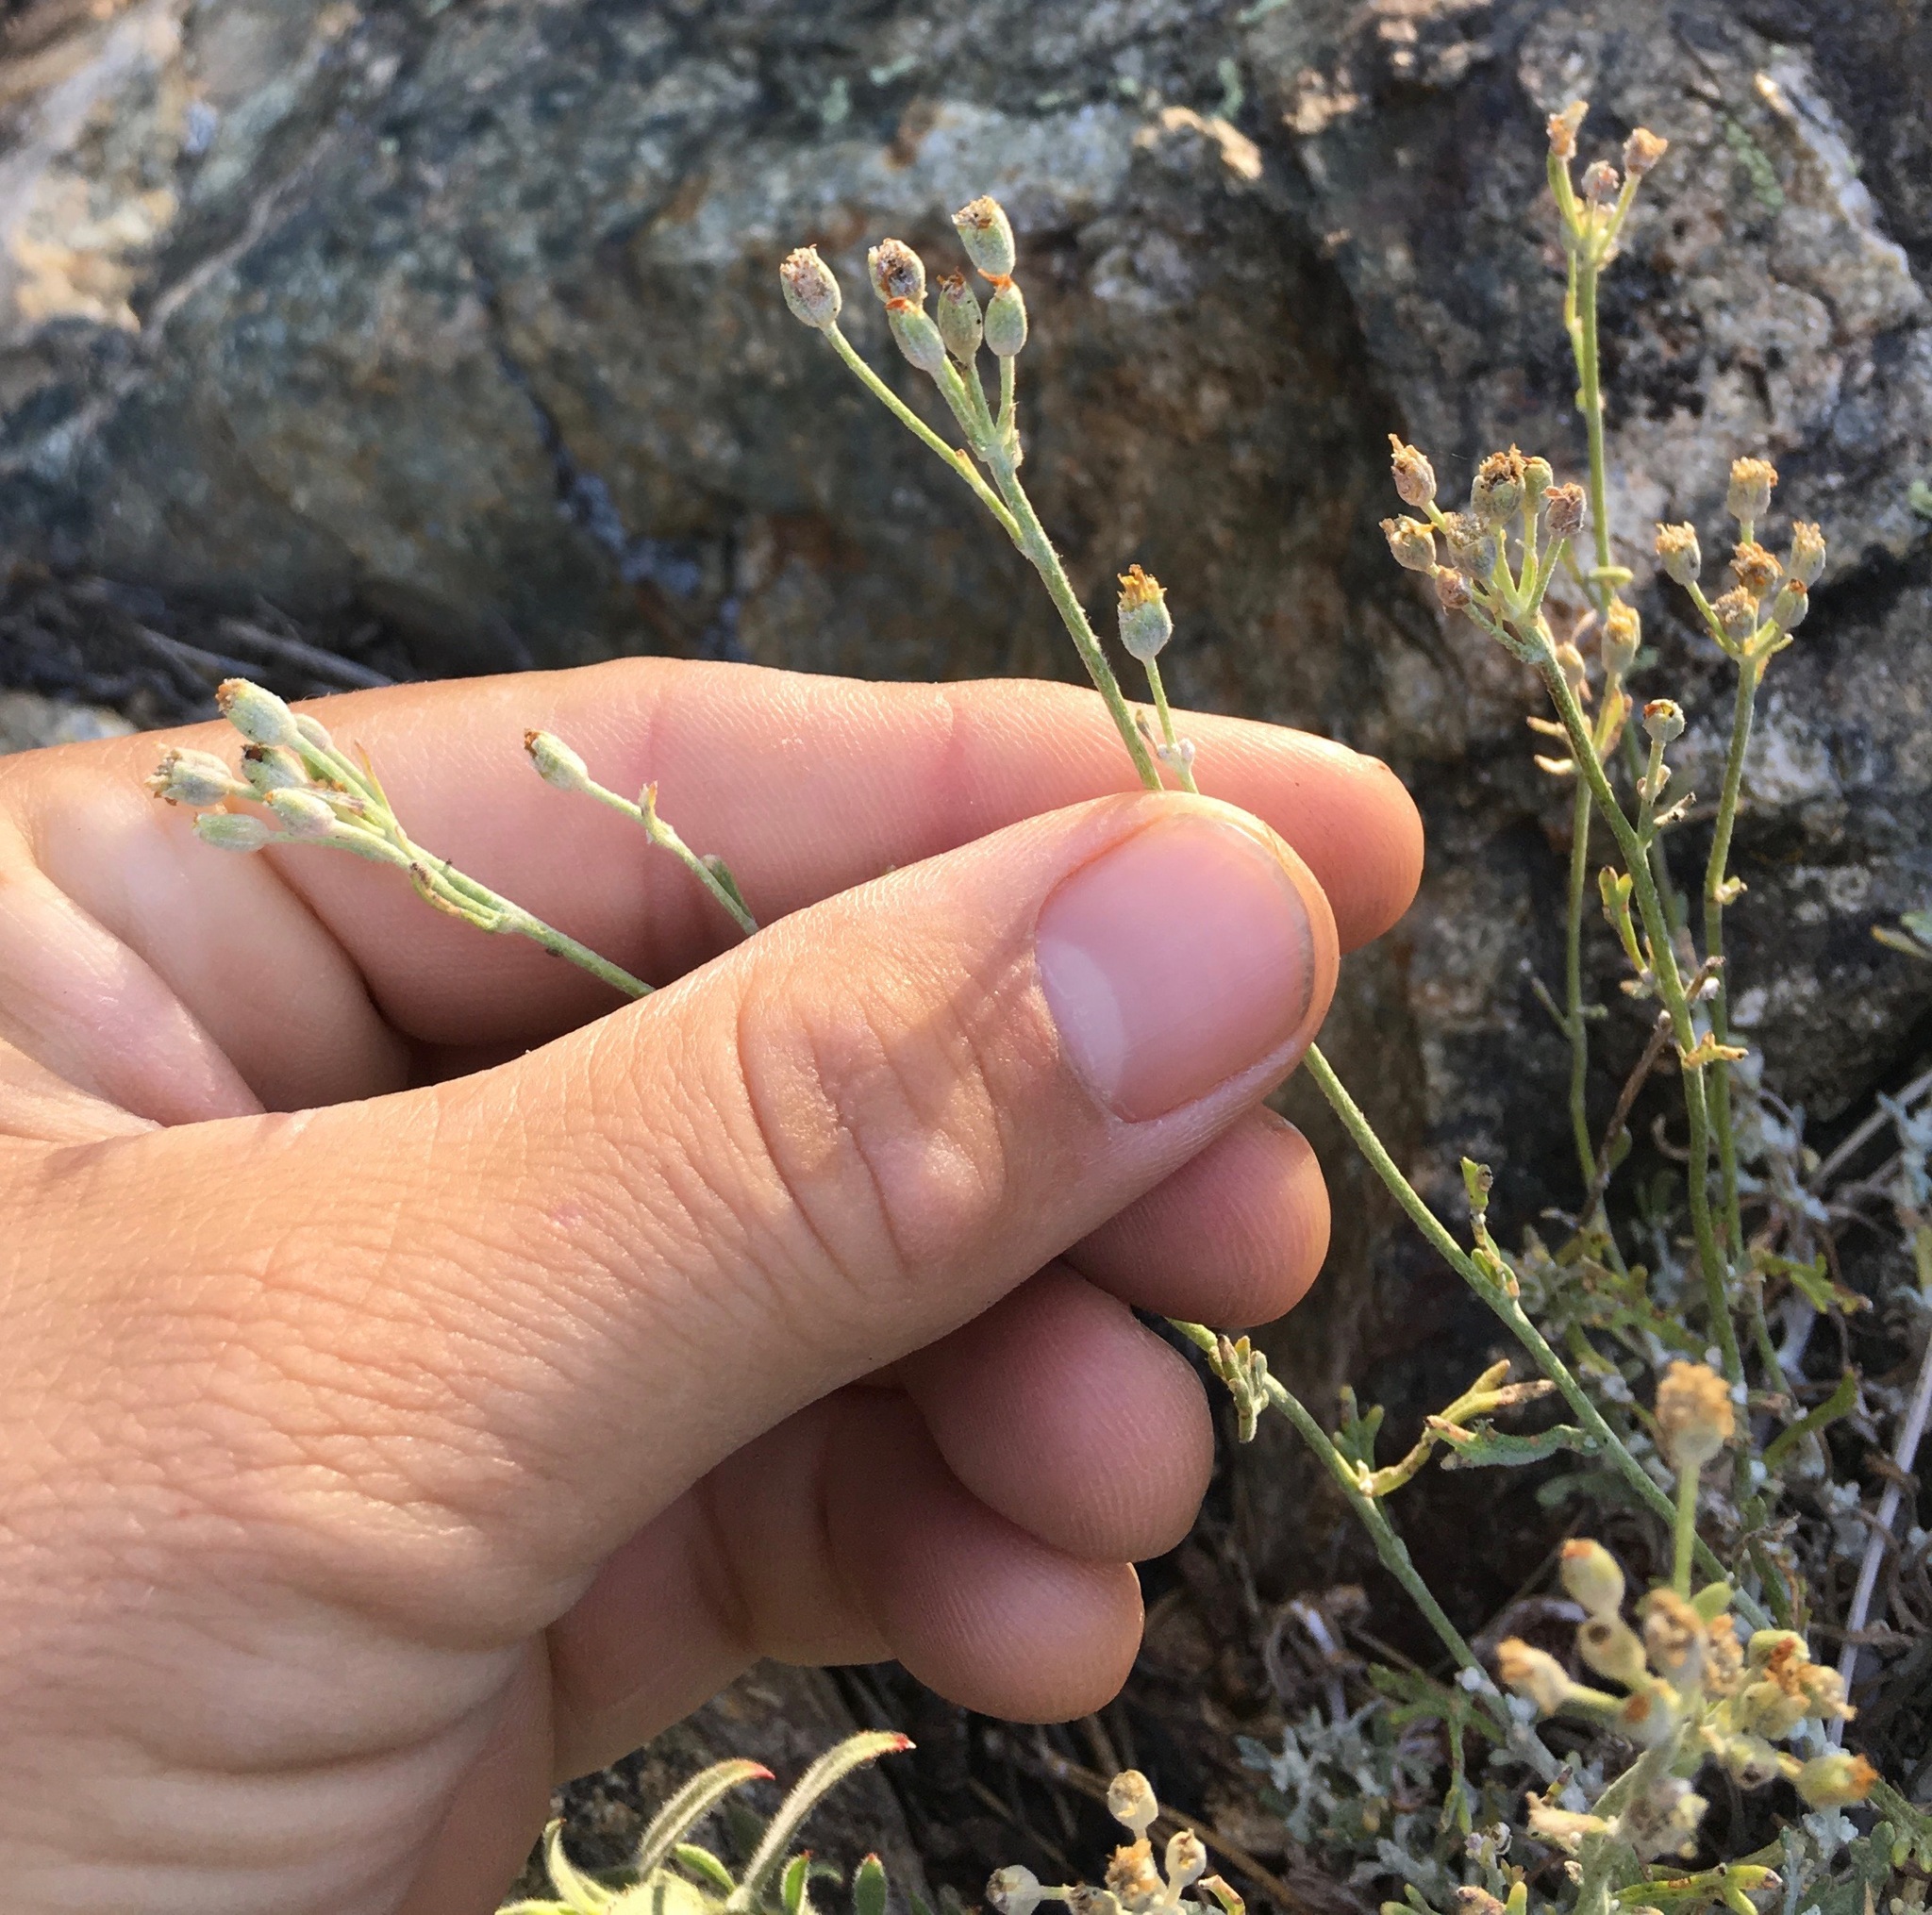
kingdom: Plantae
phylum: Tracheophyta
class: Magnoliopsida
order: Asterales
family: Asteraceae
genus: Eriophyllum
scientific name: Eriophyllum confertiflorum
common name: Golden-yarrow
